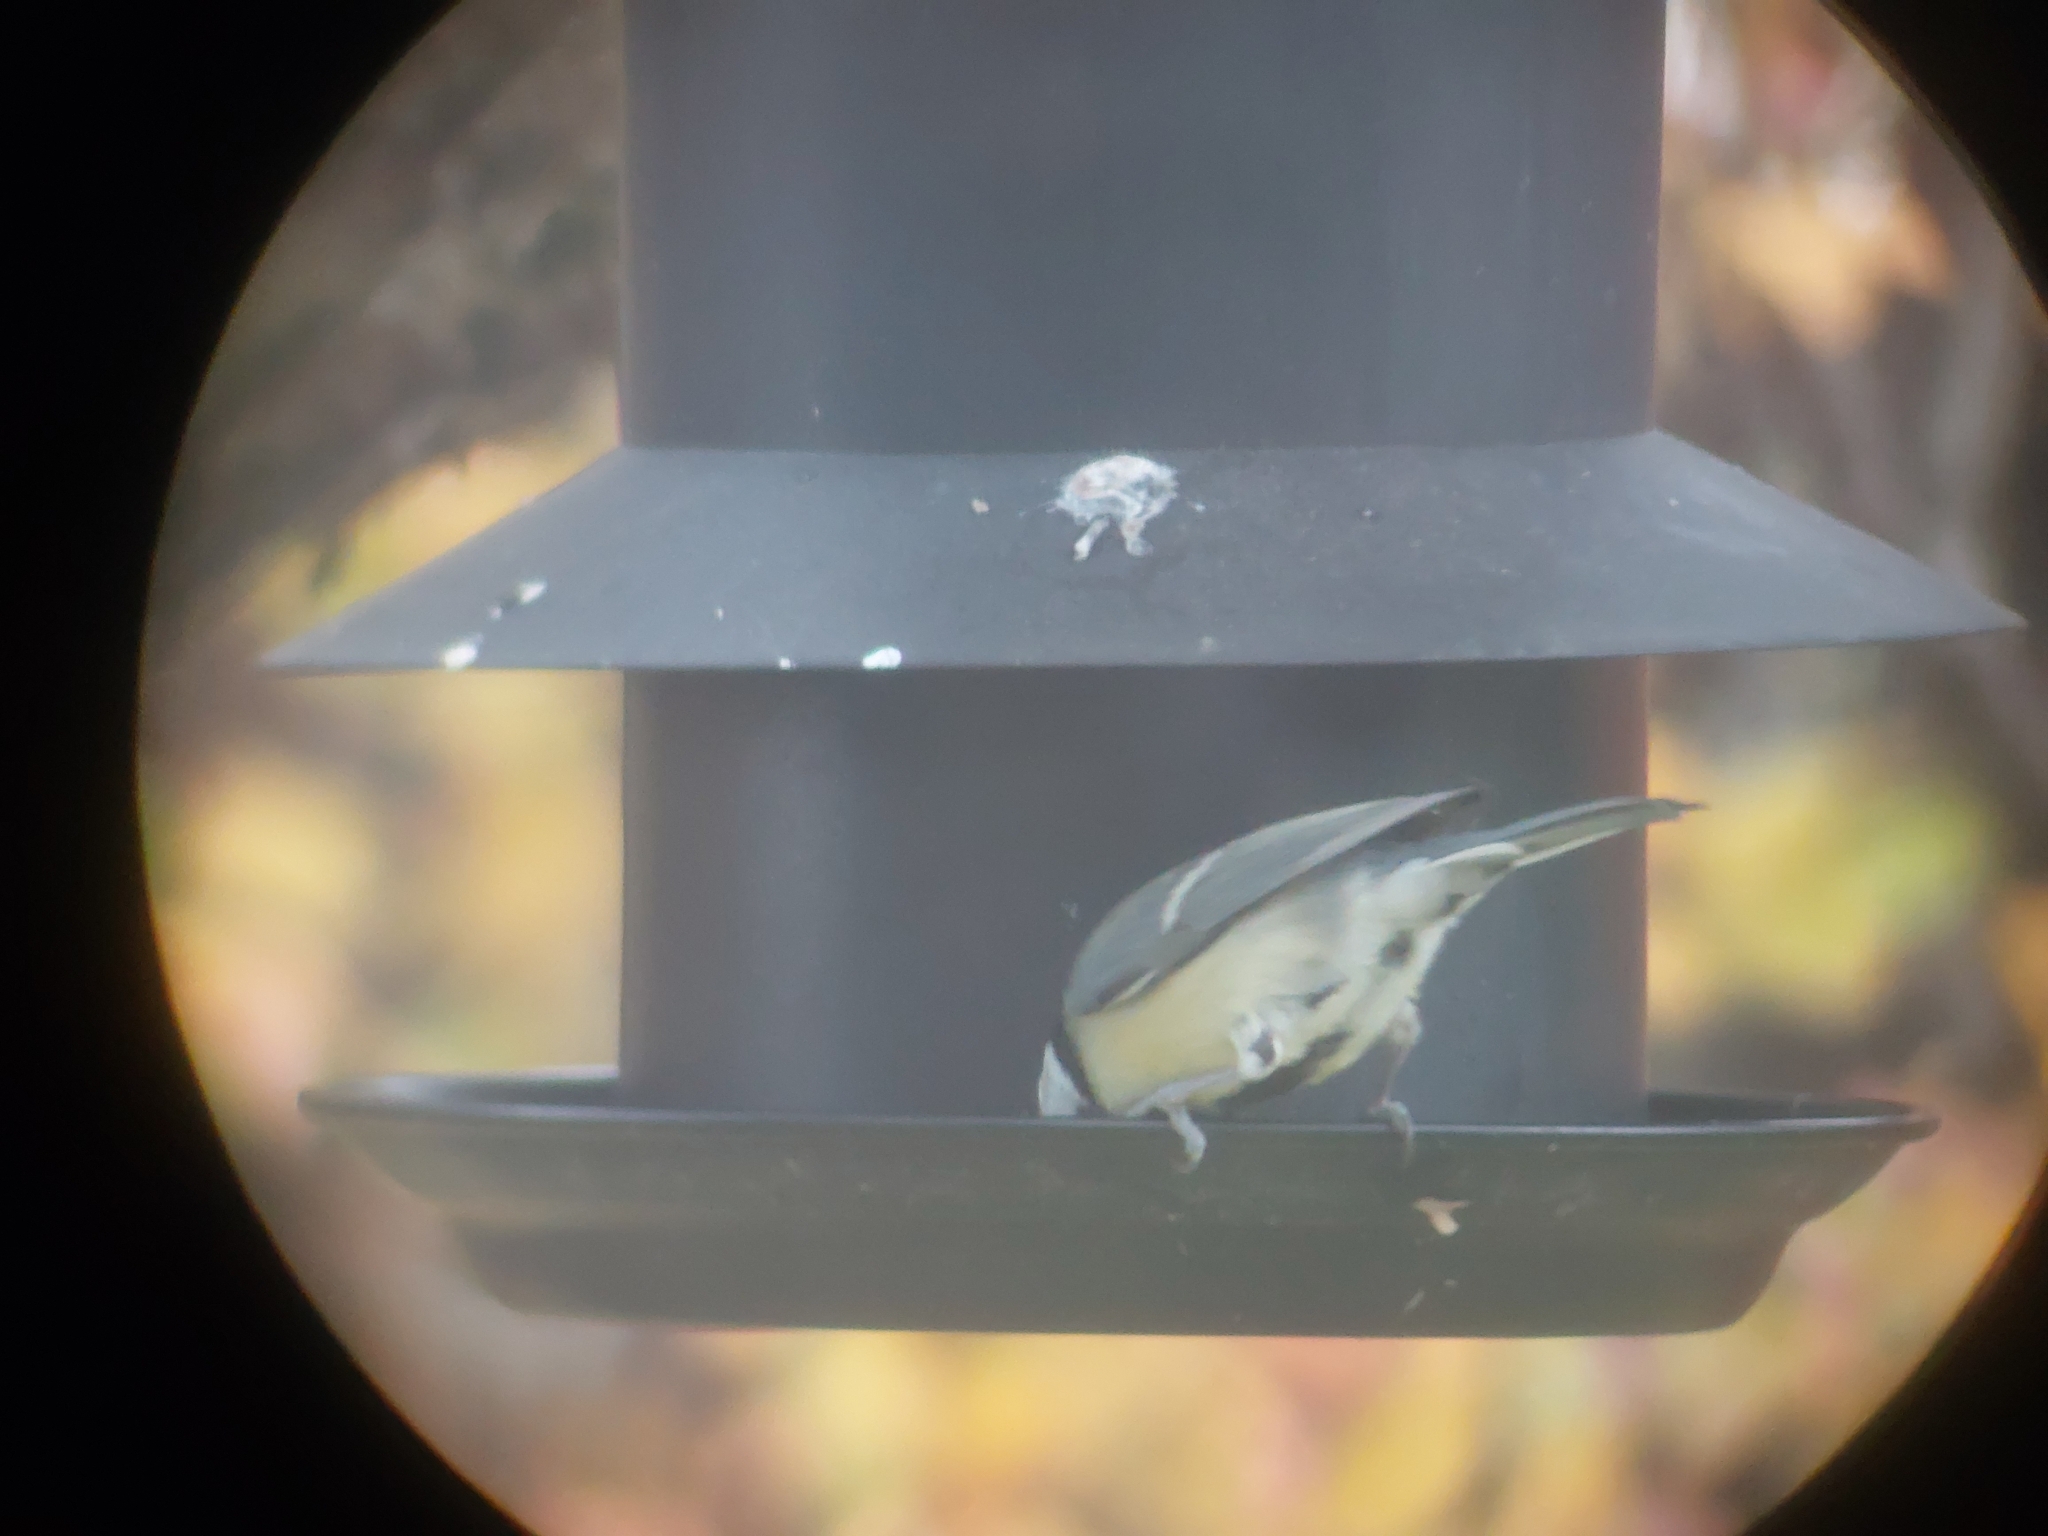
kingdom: Animalia
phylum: Chordata
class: Aves
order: Passeriformes
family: Paridae
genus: Parus
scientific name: Parus major
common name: Great tit
